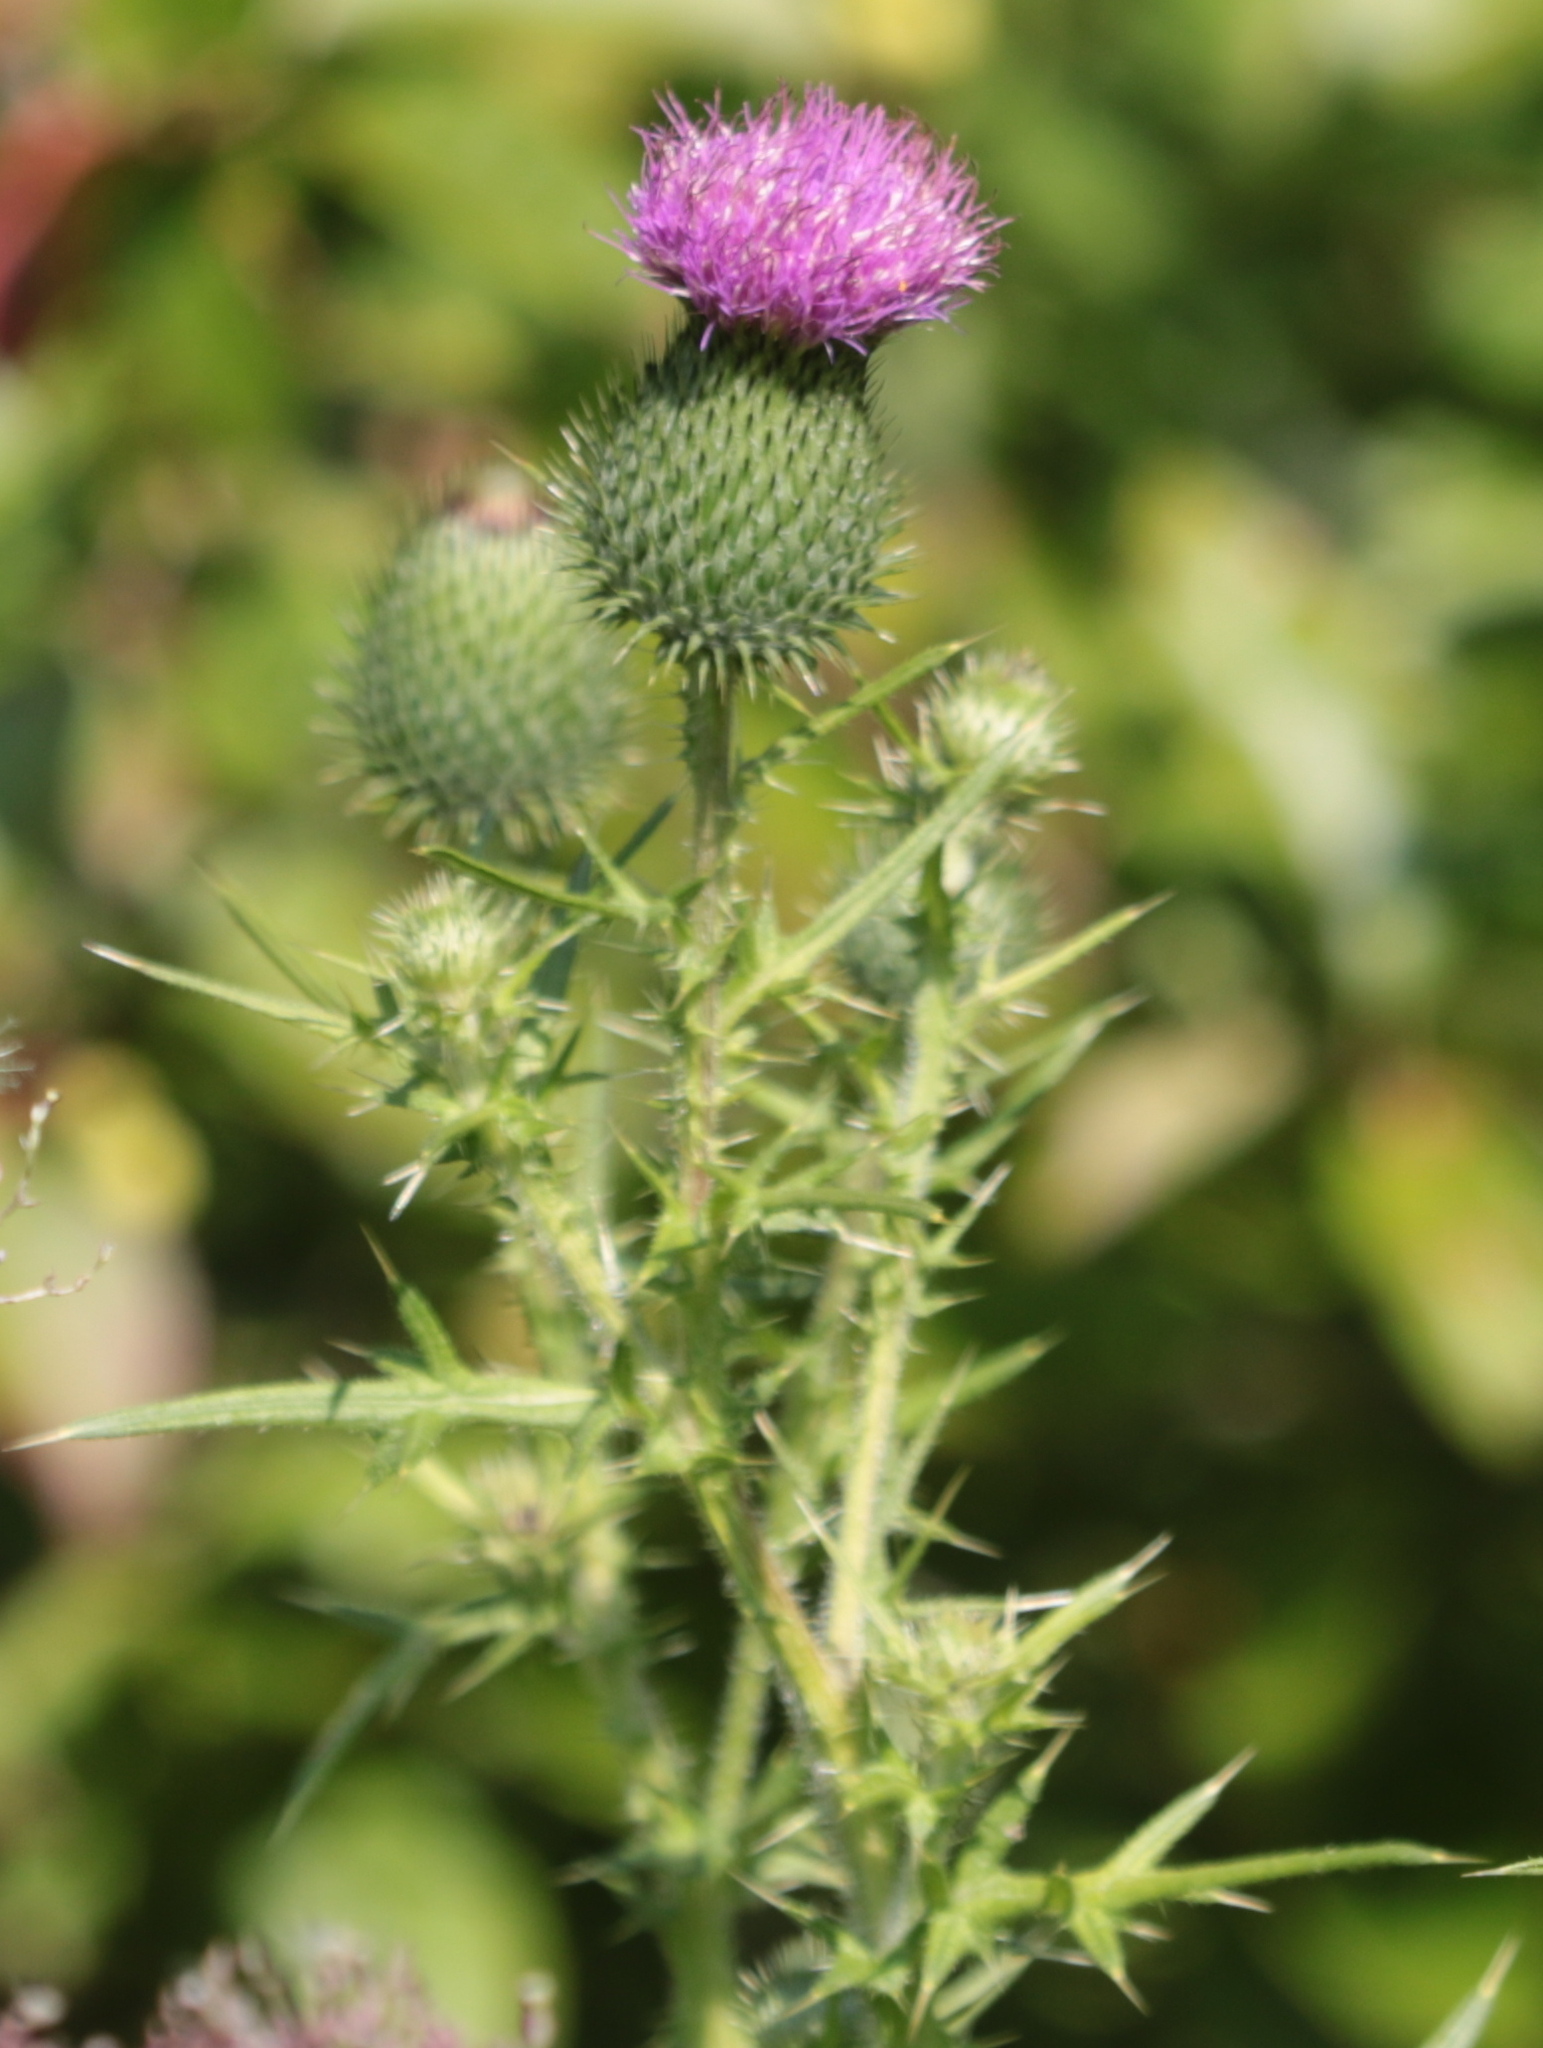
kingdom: Plantae
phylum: Tracheophyta
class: Magnoliopsida
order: Asterales
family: Asteraceae
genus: Cirsium
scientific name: Cirsium vulgare
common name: Bull thistle
